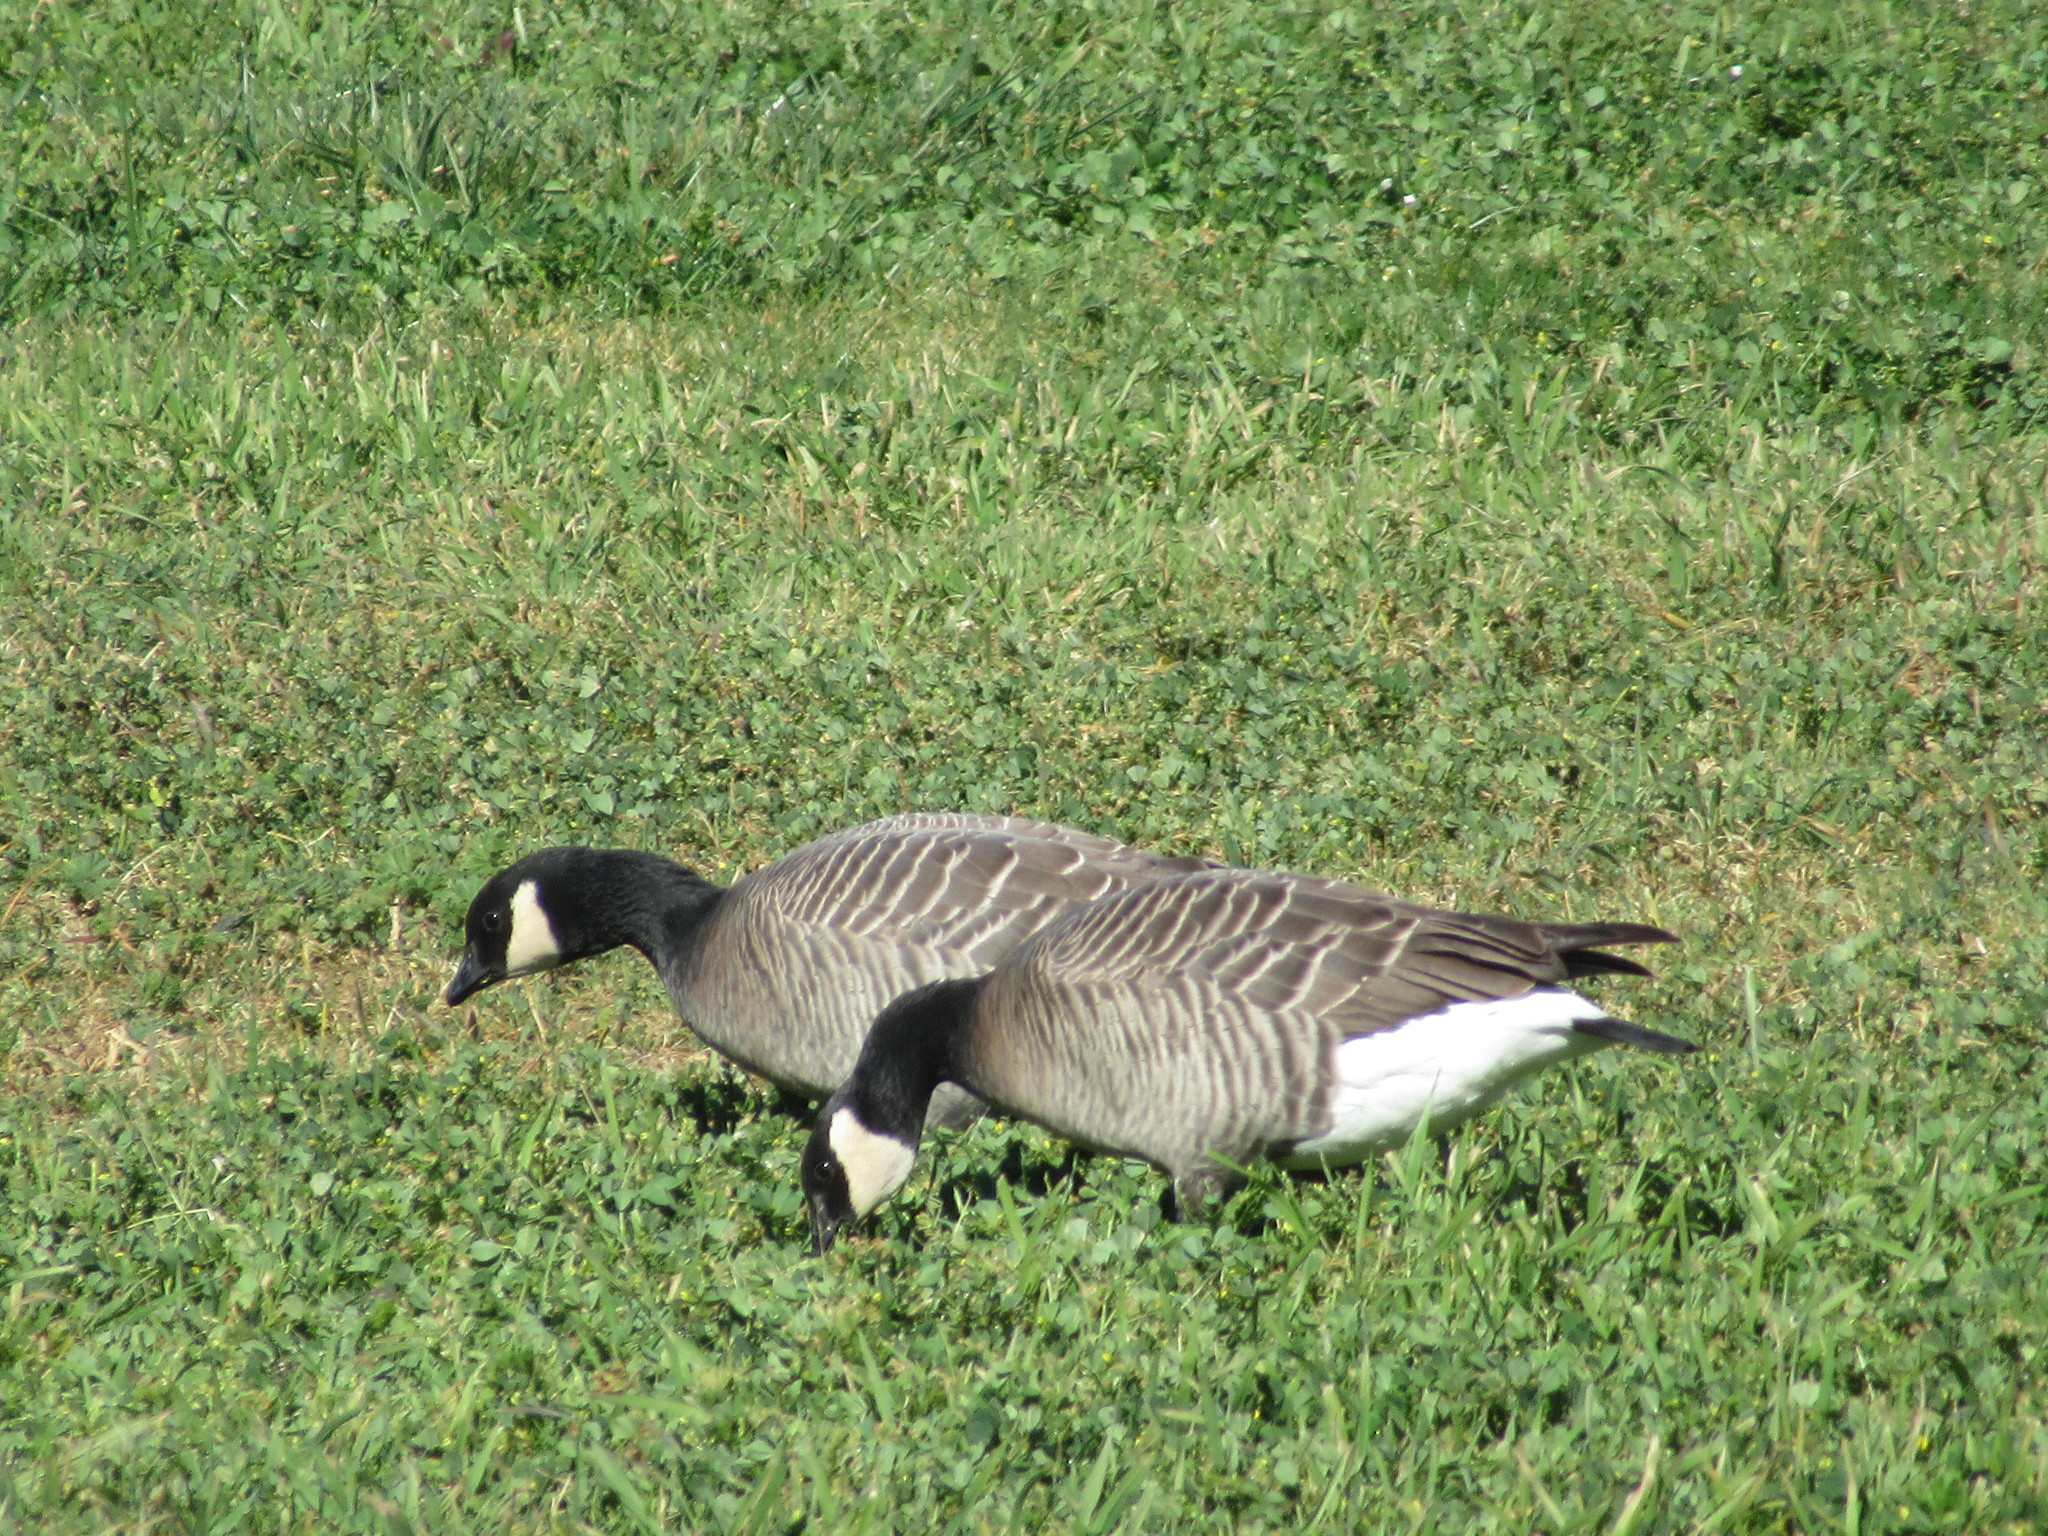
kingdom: Animalia
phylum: Chordata
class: Aves
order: Anseriformes
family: Anatidae
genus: Branta
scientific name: Branta hutchinsii
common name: Cackling goose
